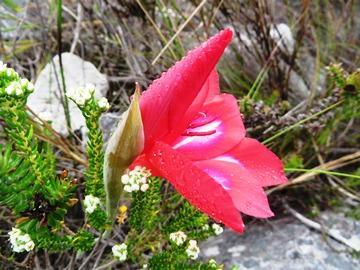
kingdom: Plantae
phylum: Tracheophyta
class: Liliopsida
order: Asparagales
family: Iridaceae
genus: Gladiolus
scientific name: Gladiolus stefaniae
